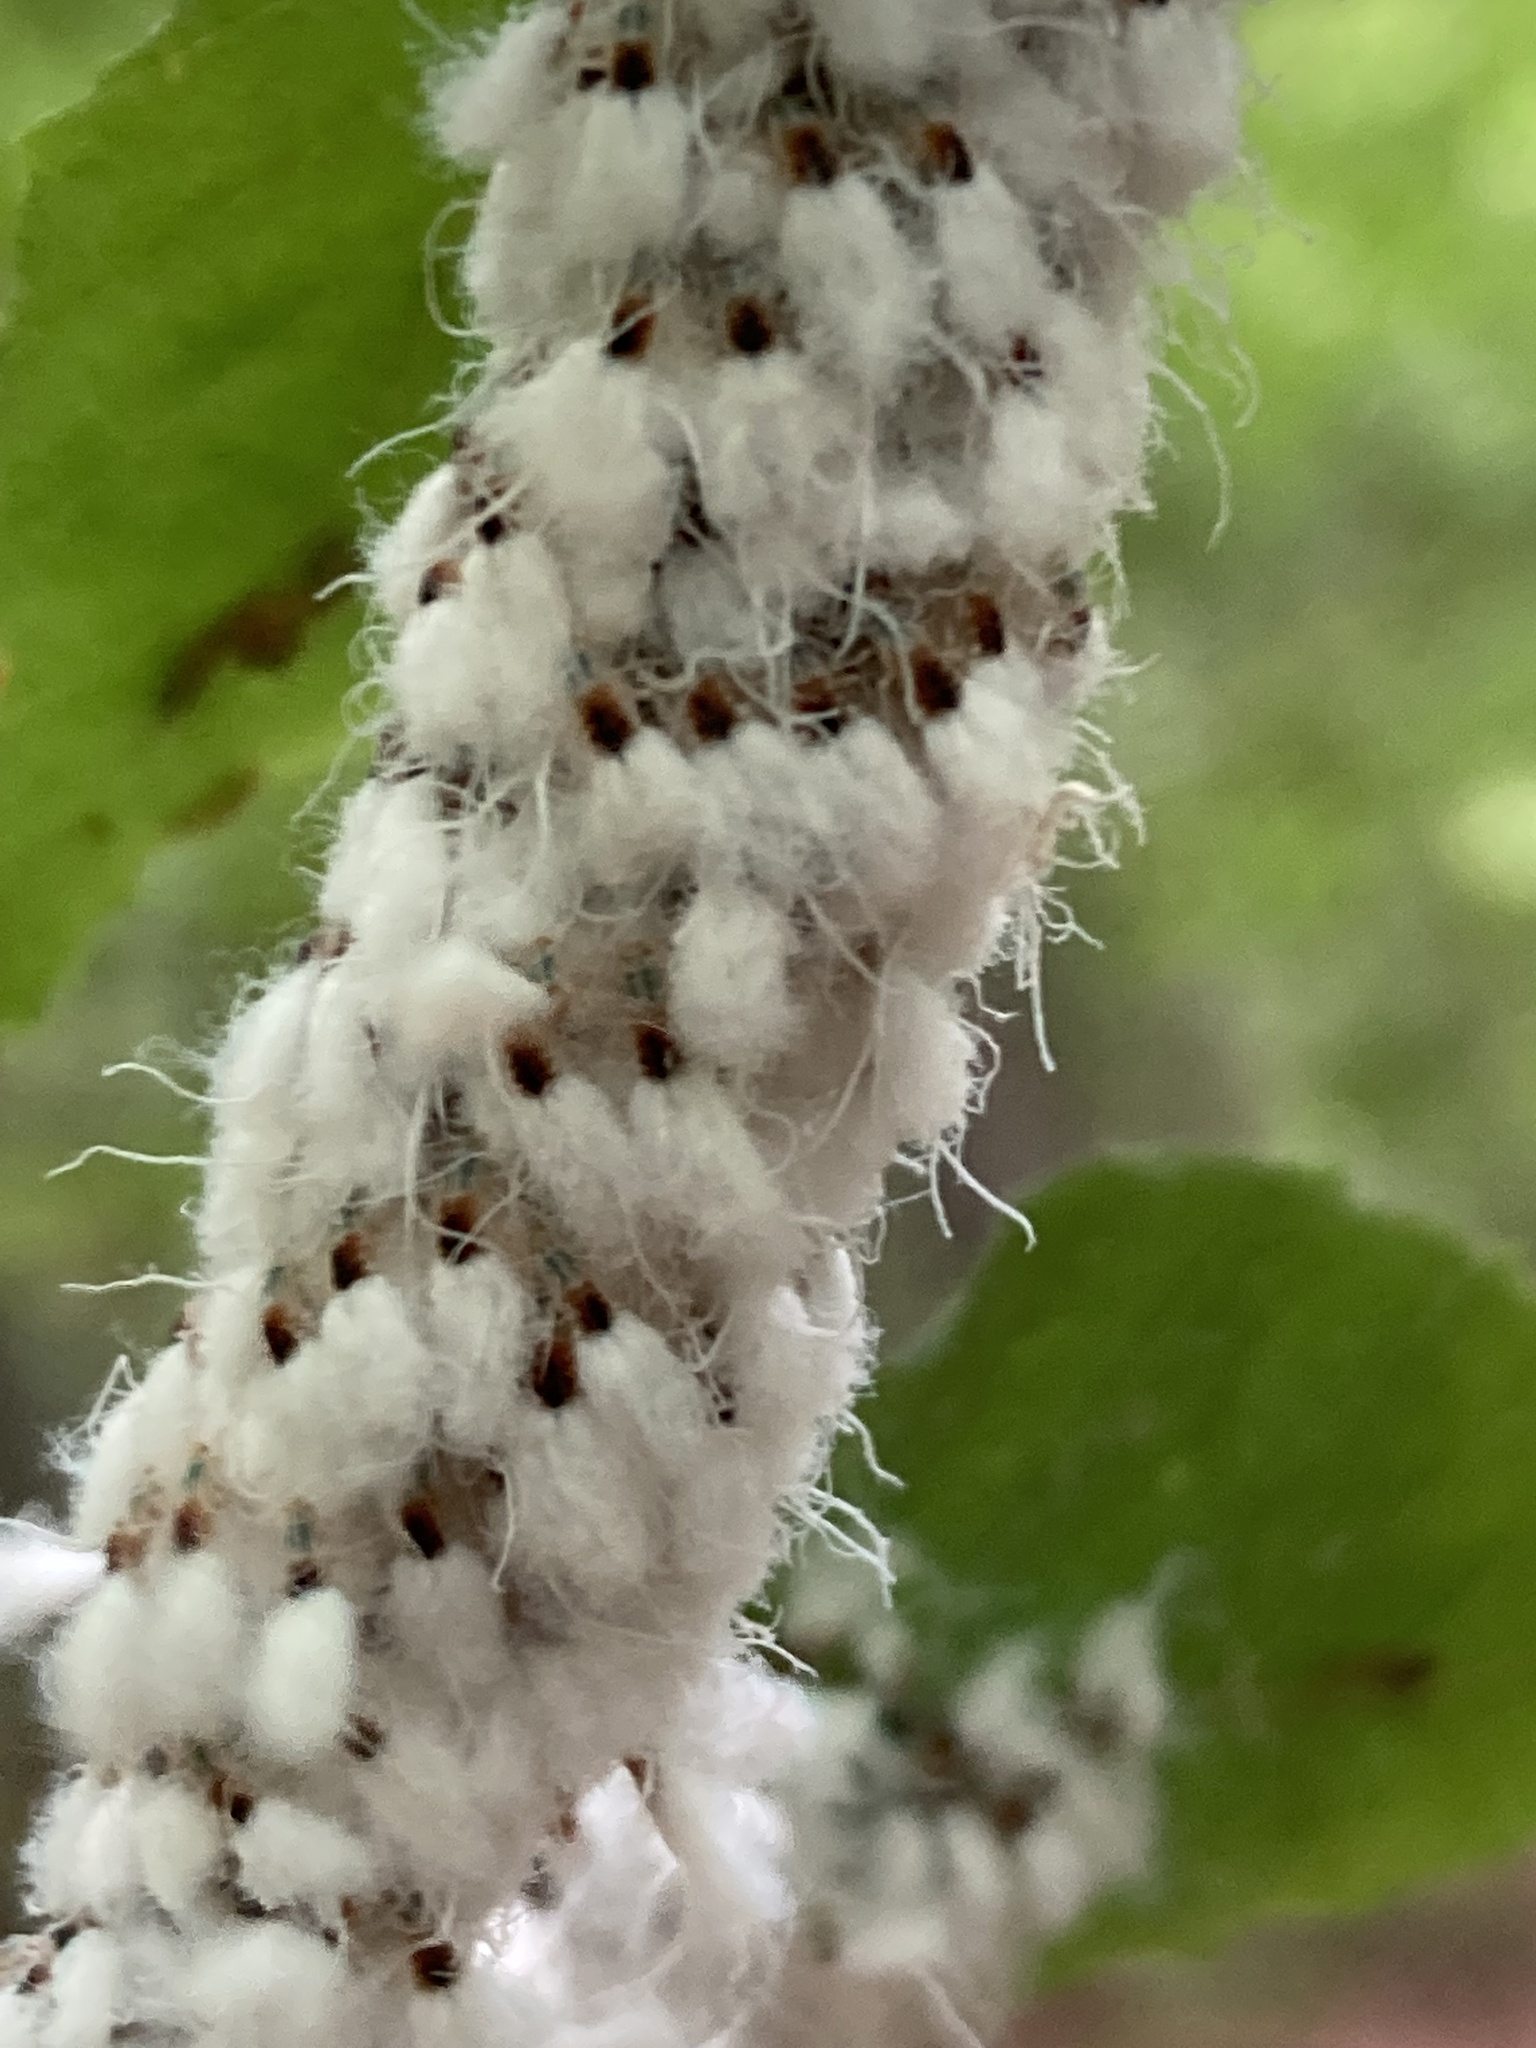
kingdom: Animalia
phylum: Arthropoda
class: Insecta
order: Hemiptera
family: Aphididae
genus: Grylloprociphilus
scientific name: Grylloprociphilus imbricator
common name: Beech blight aphid
